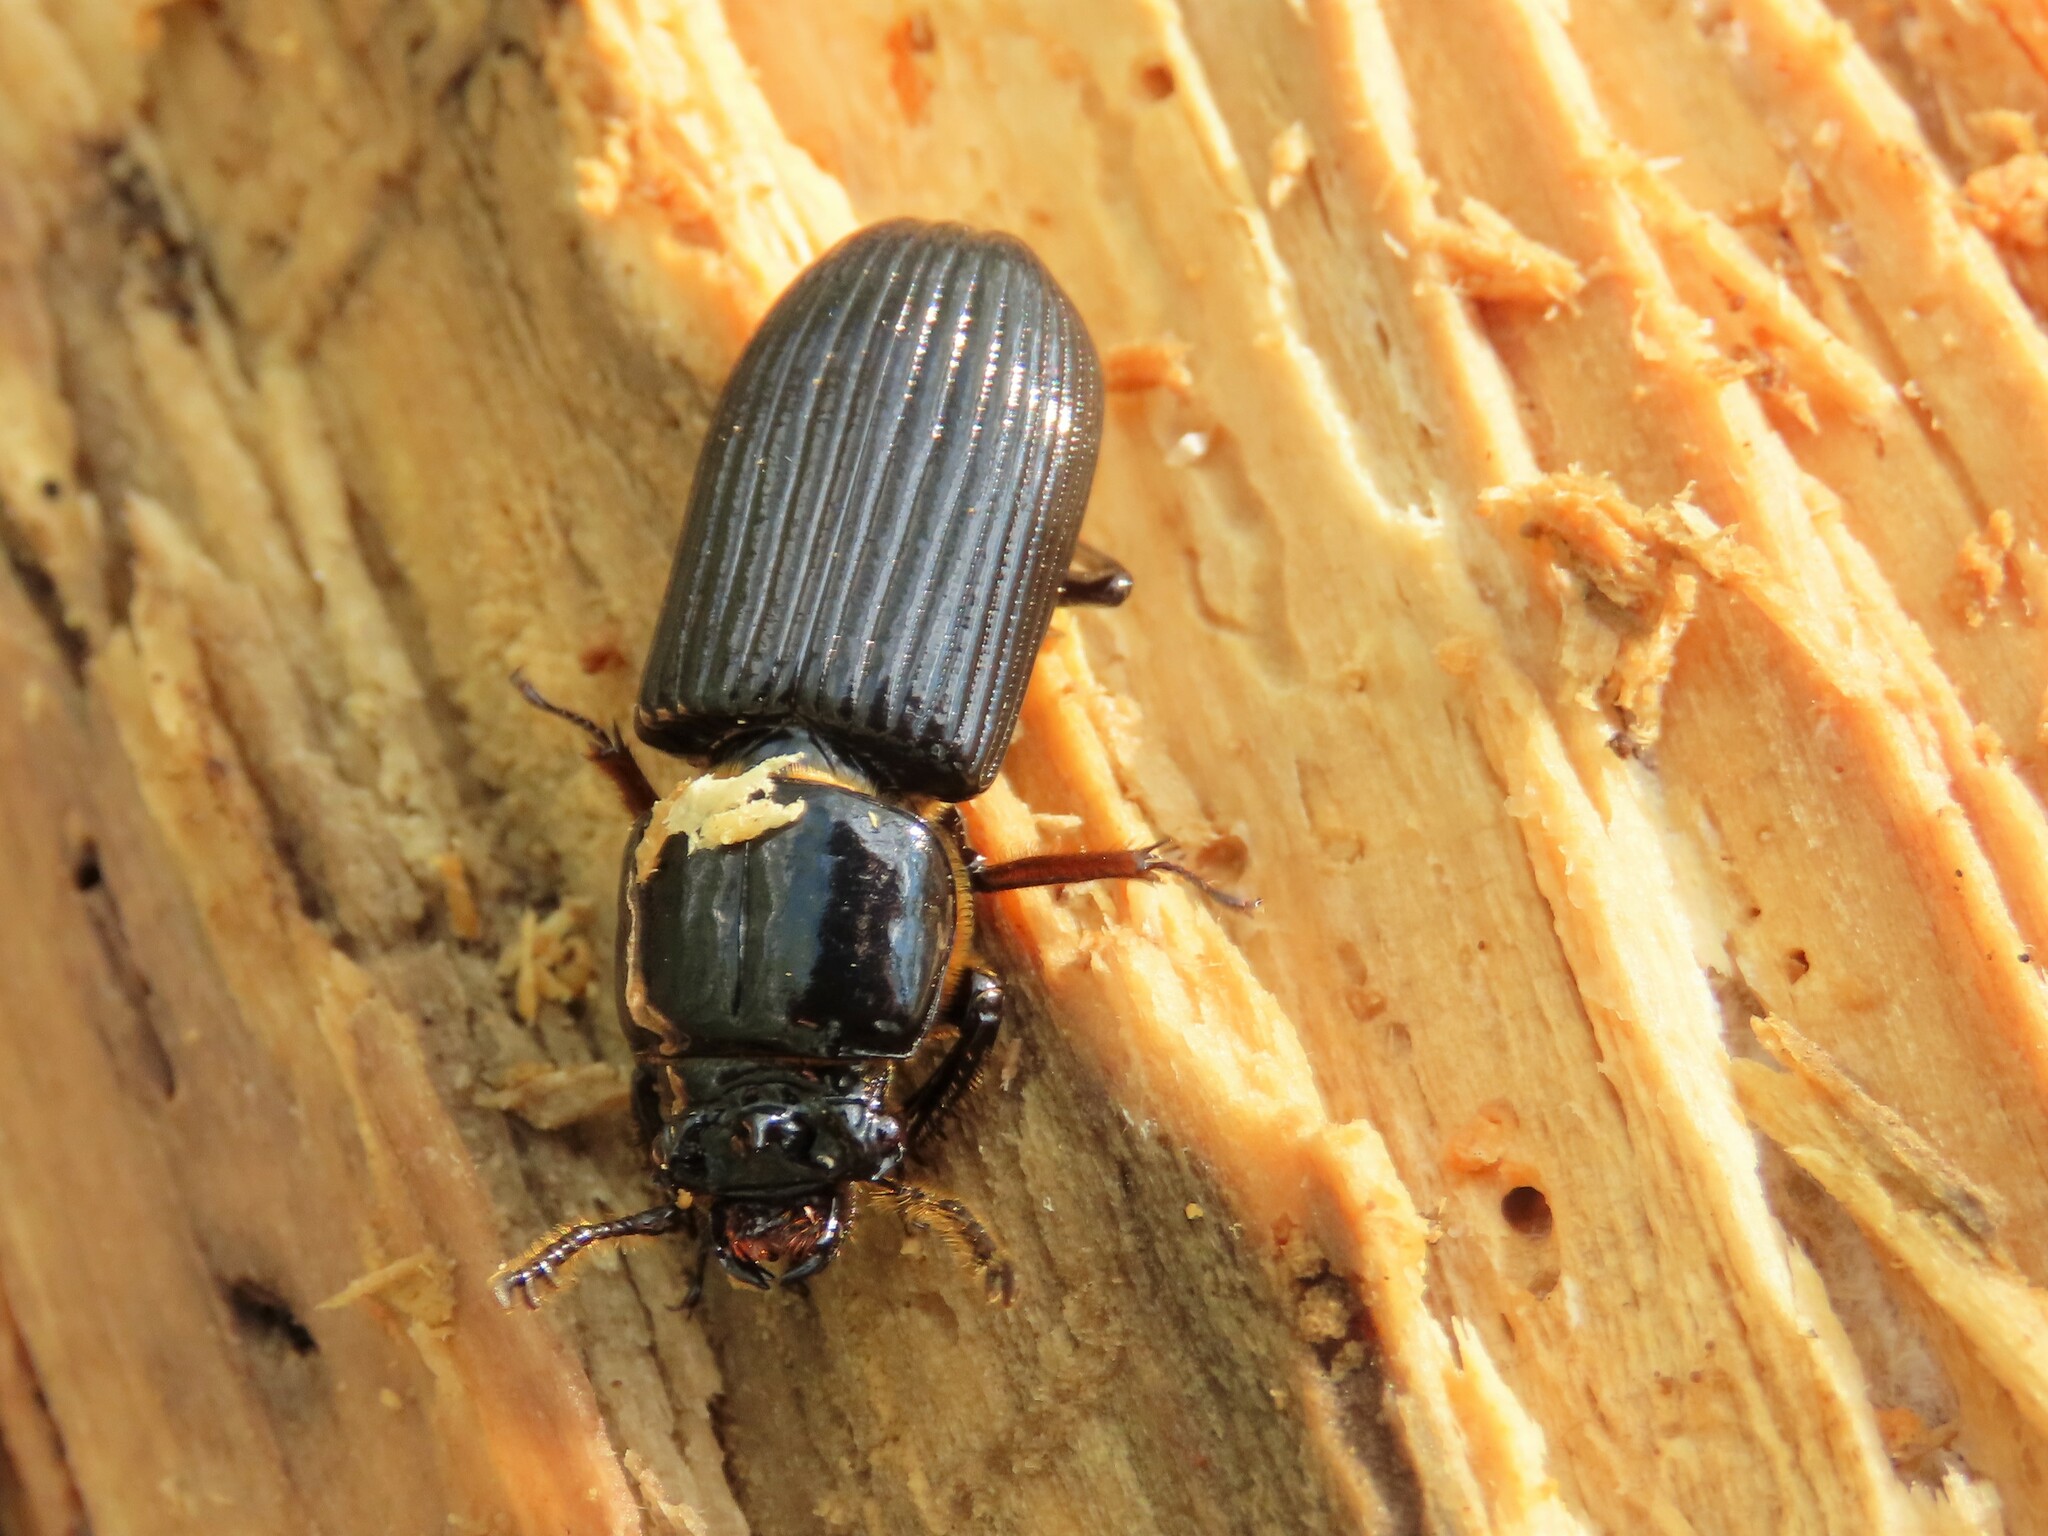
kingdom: Animalia
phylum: Arthropoda
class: Insecta
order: Coleoptera
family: Passalidae
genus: Odontotaenius
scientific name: Odontotaenius disjunctus
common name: Patent leather beetle
